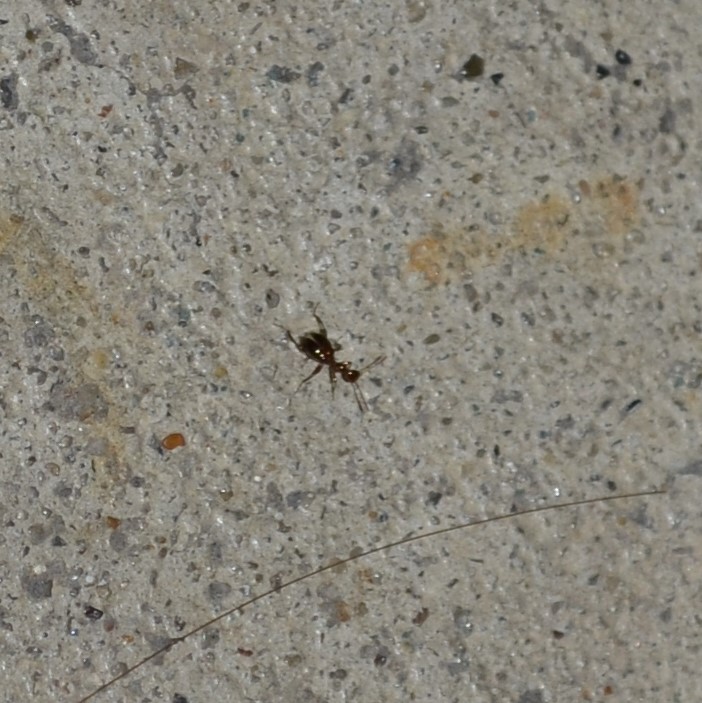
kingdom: Animalia
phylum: Arthropoda
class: Insecta
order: Coleoptera
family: Anthicidae
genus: Acanthinus
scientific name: Acanthinus
